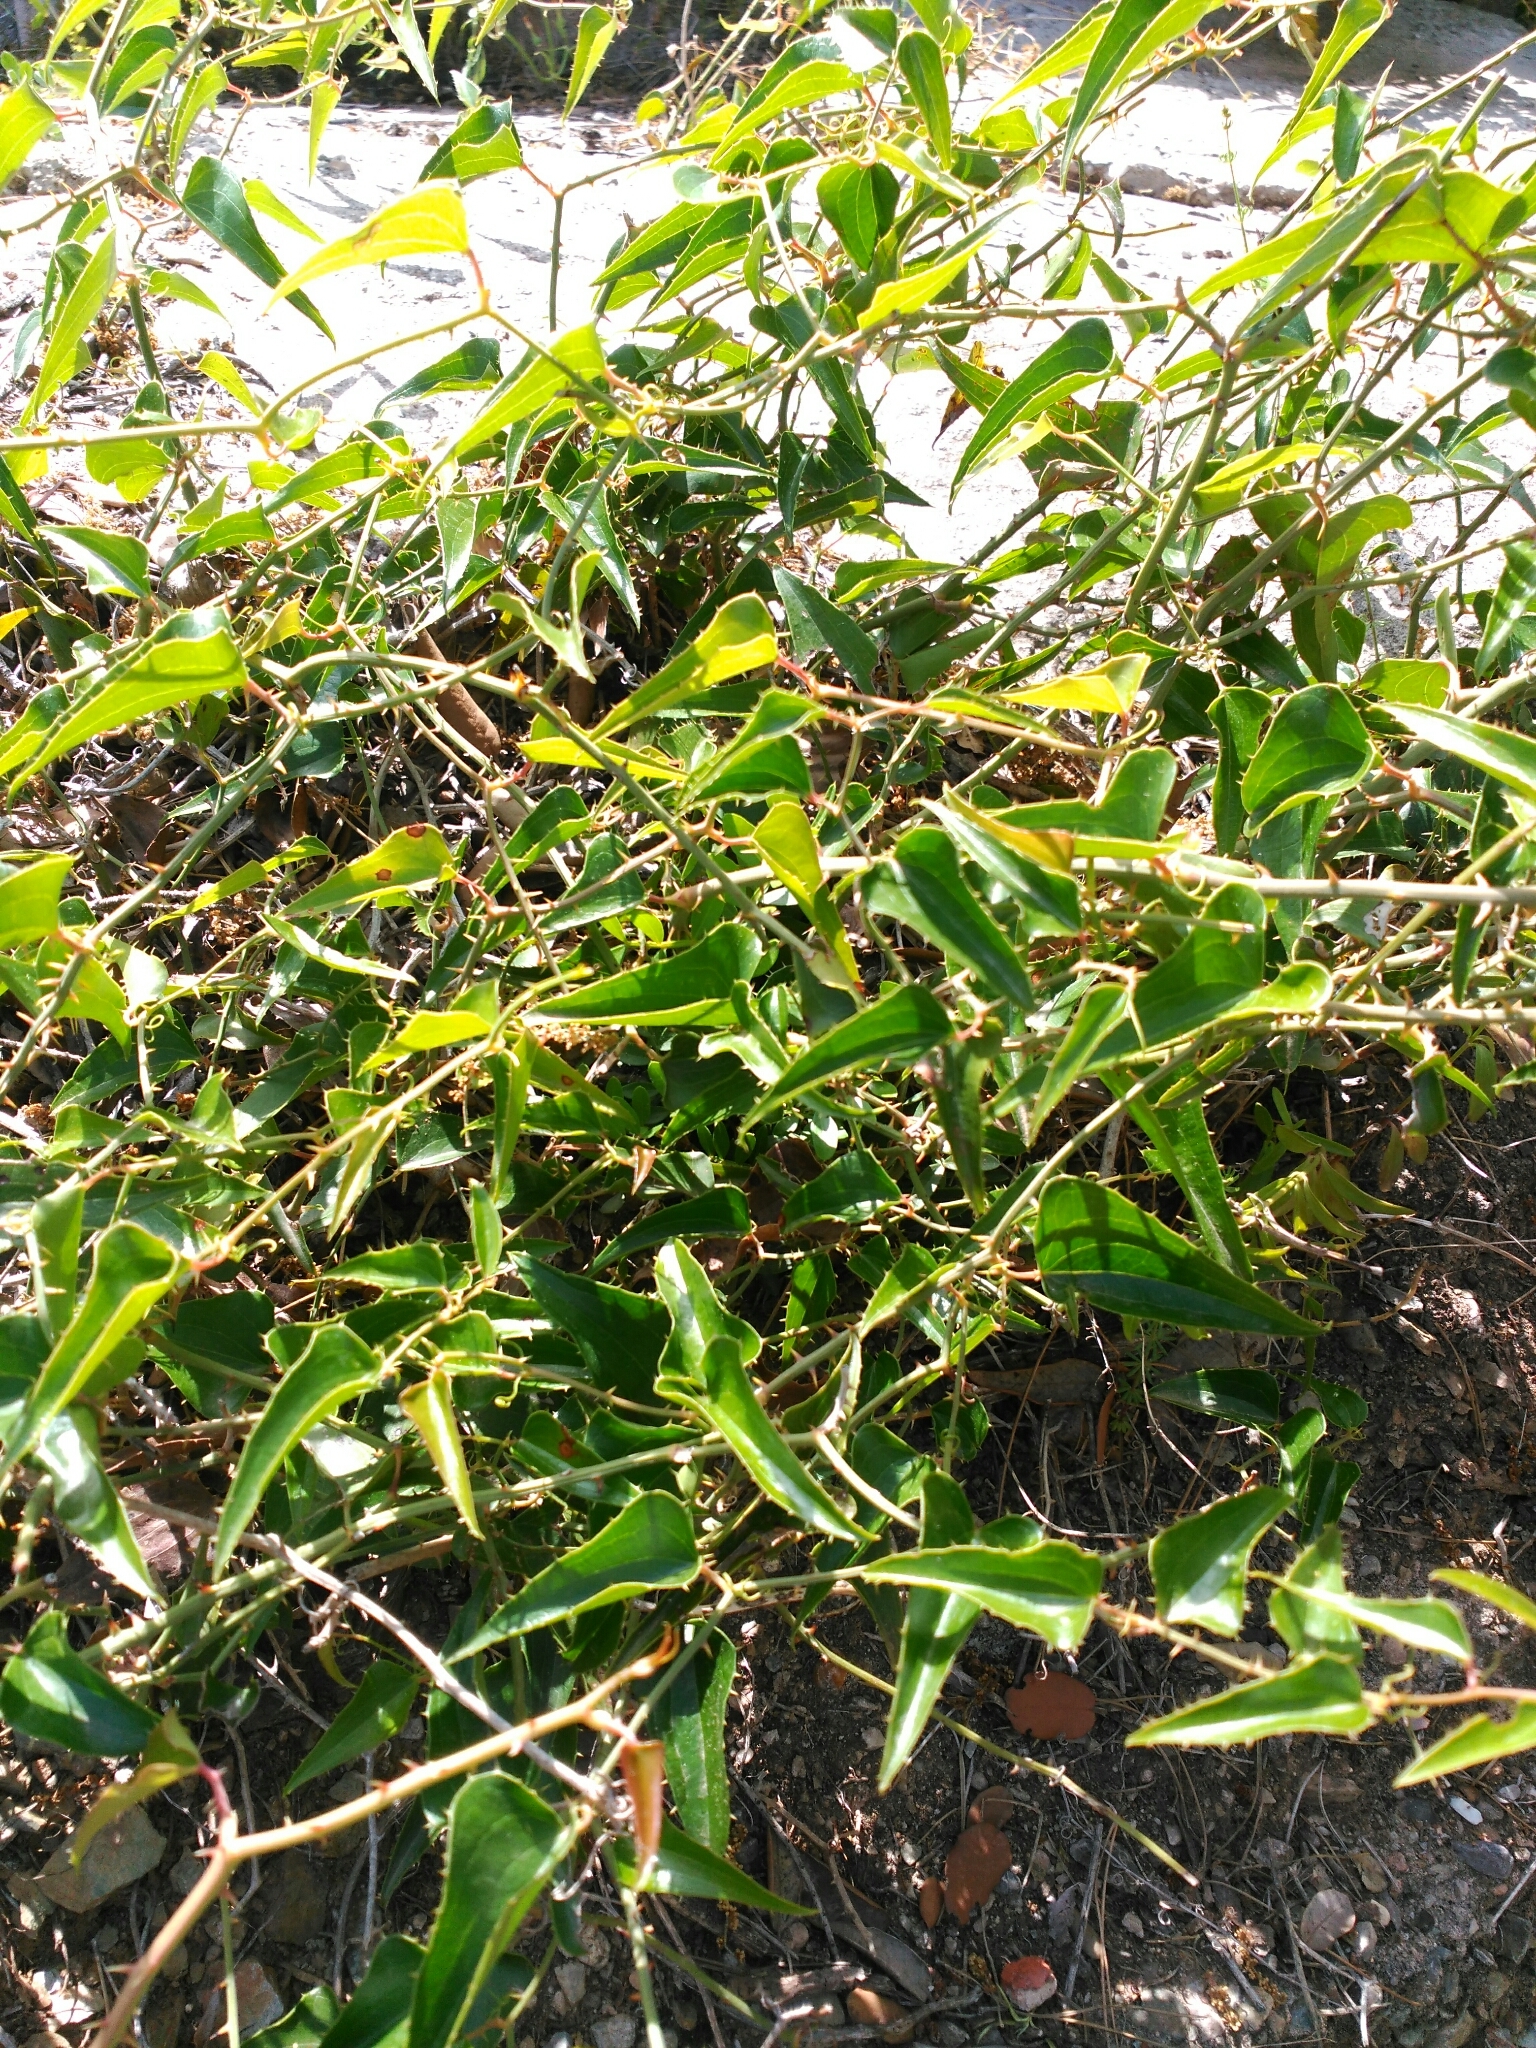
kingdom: Plantae
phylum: Tracheophyta
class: Liliopsida
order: Liliales
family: Smilacaceae
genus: Smilax
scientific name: Smilax aspera
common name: Common smilax
